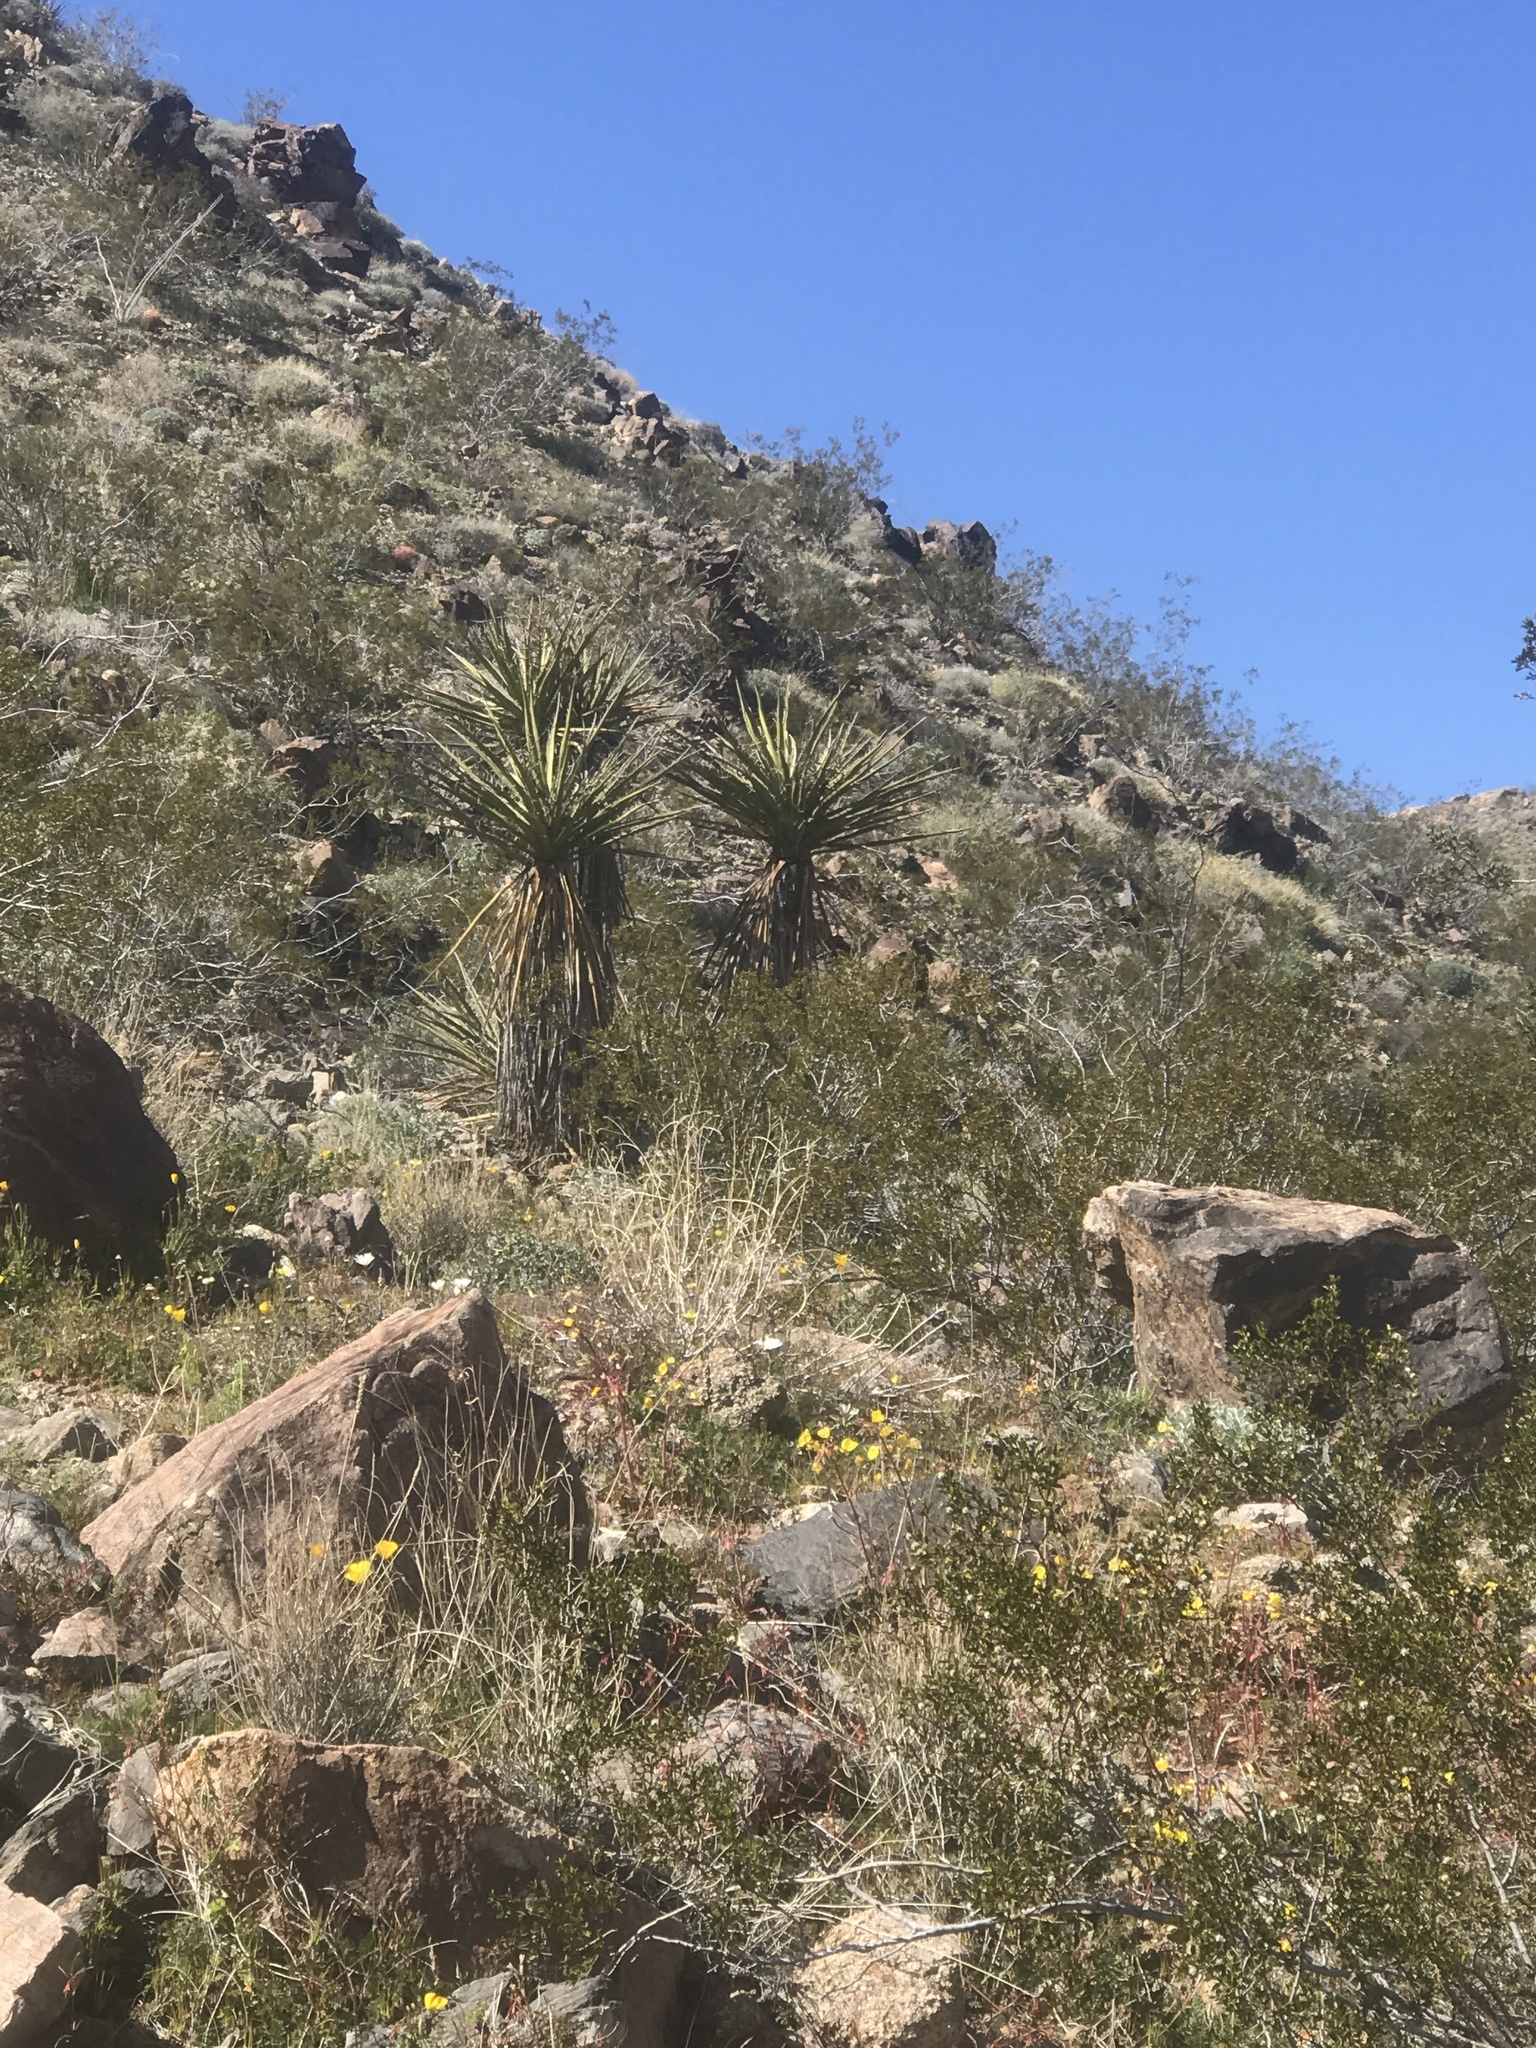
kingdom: Plantae
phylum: Tracheophyta
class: Liliopsida
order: Asparagales
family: Asparagaceae
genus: Yucca
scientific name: Yucca schidigera
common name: Mojave yucca
